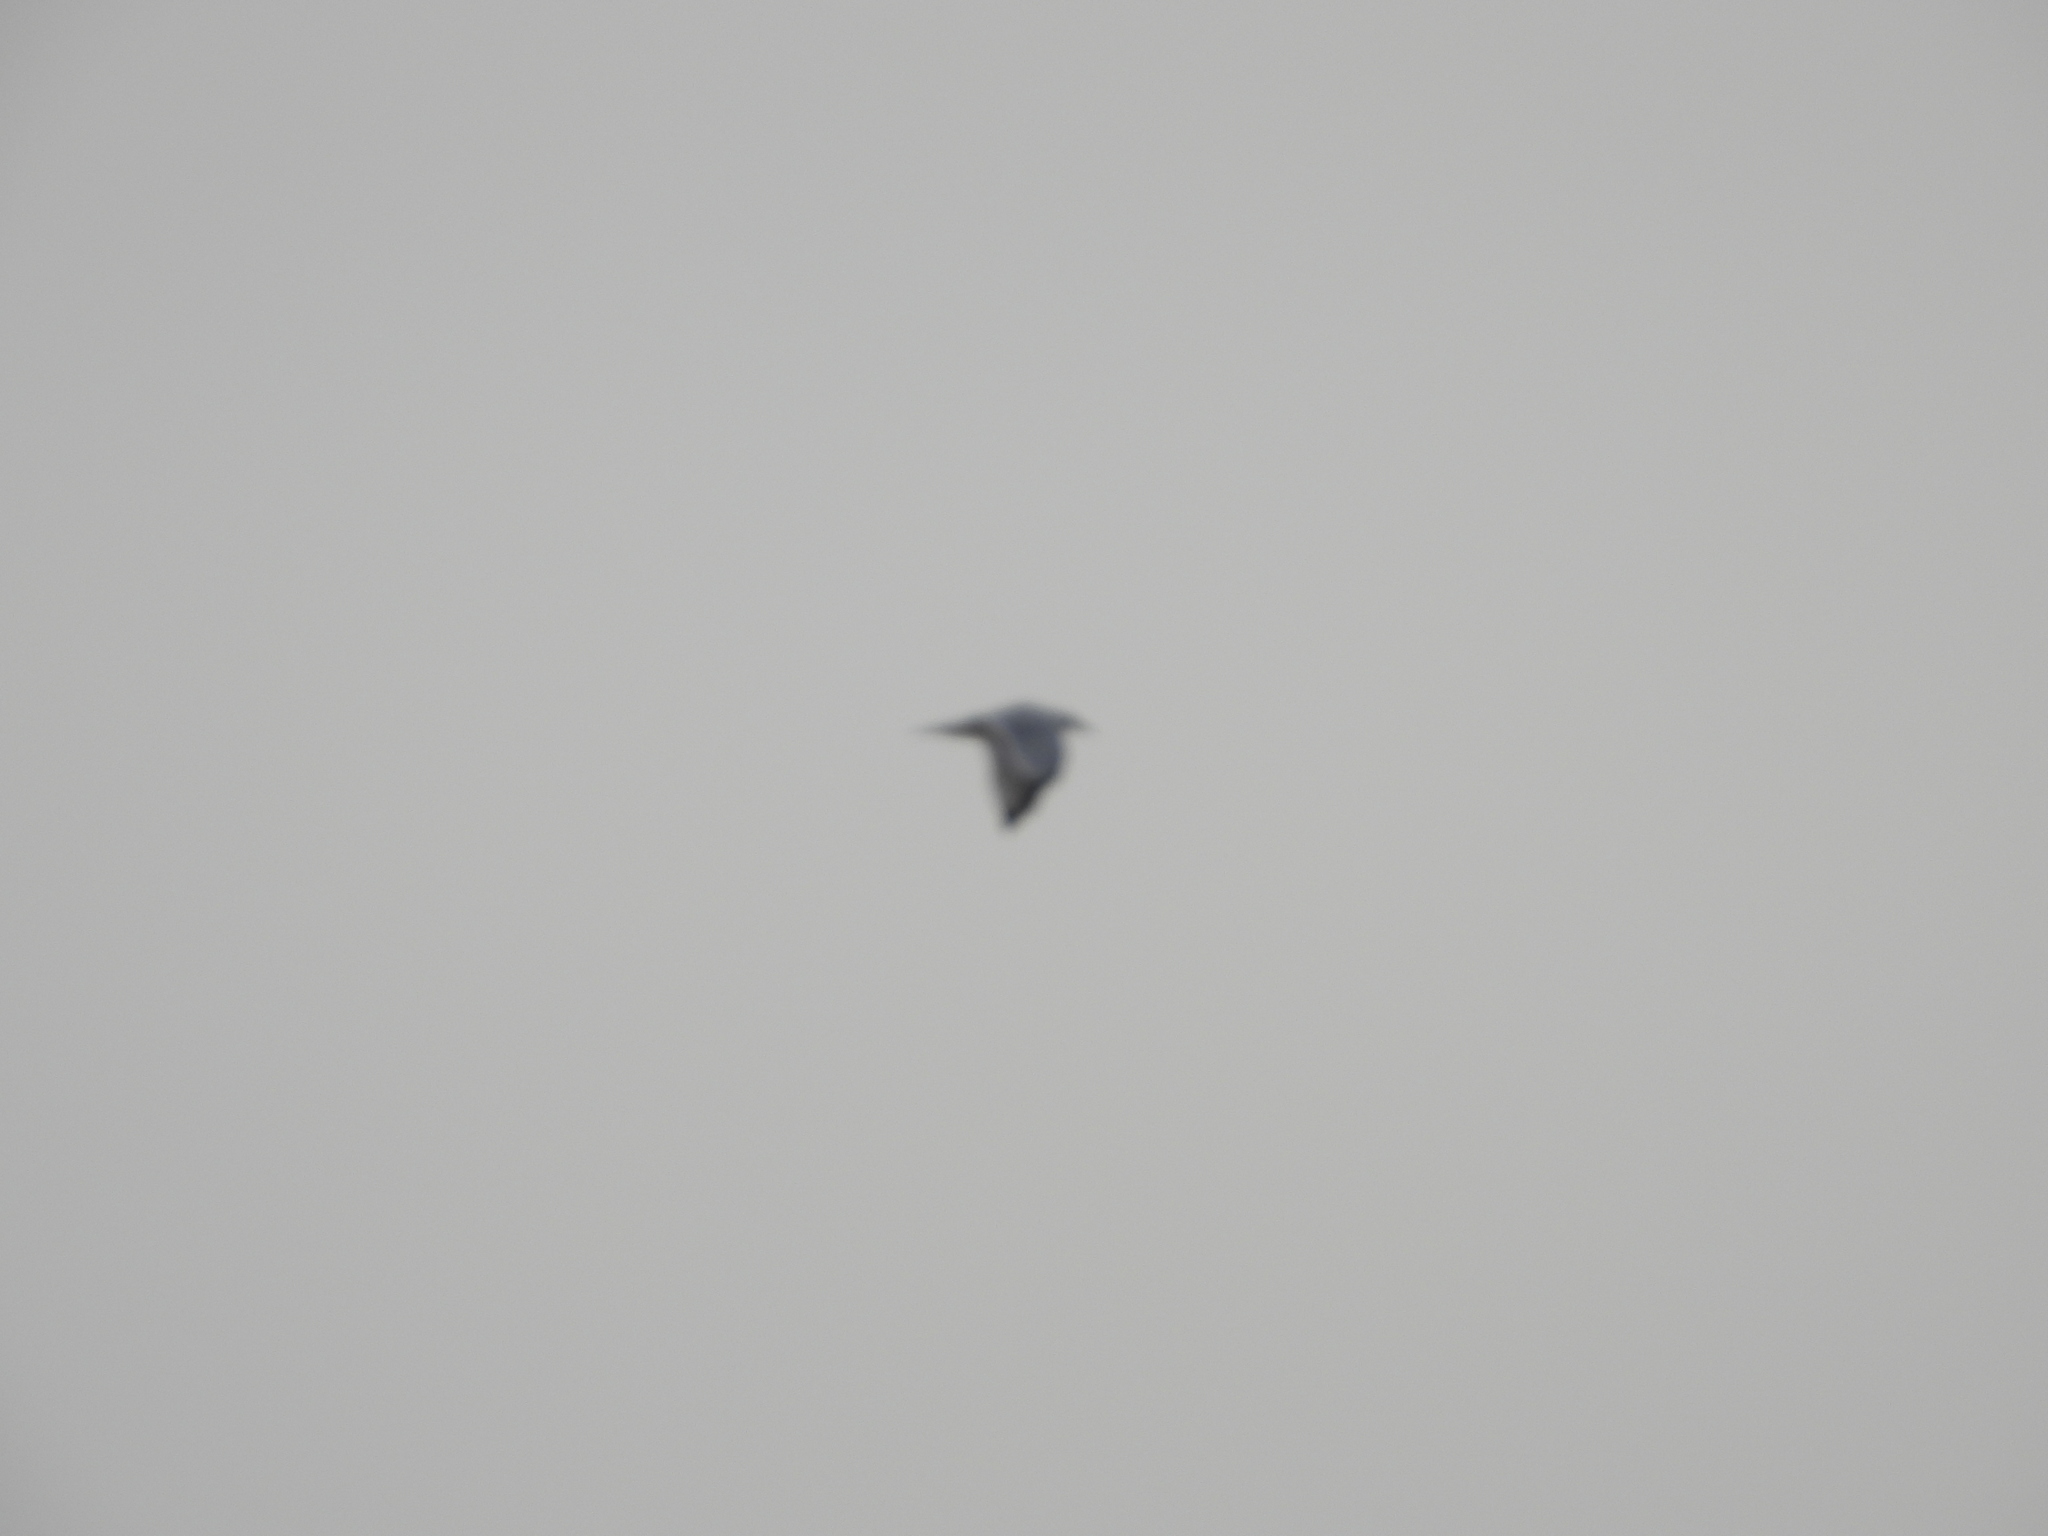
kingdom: Animalia
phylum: Chordata
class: Aves
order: Charadriiformes
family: Laridae
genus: Larus
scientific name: Larus delawarensis
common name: Ring-billed gull
